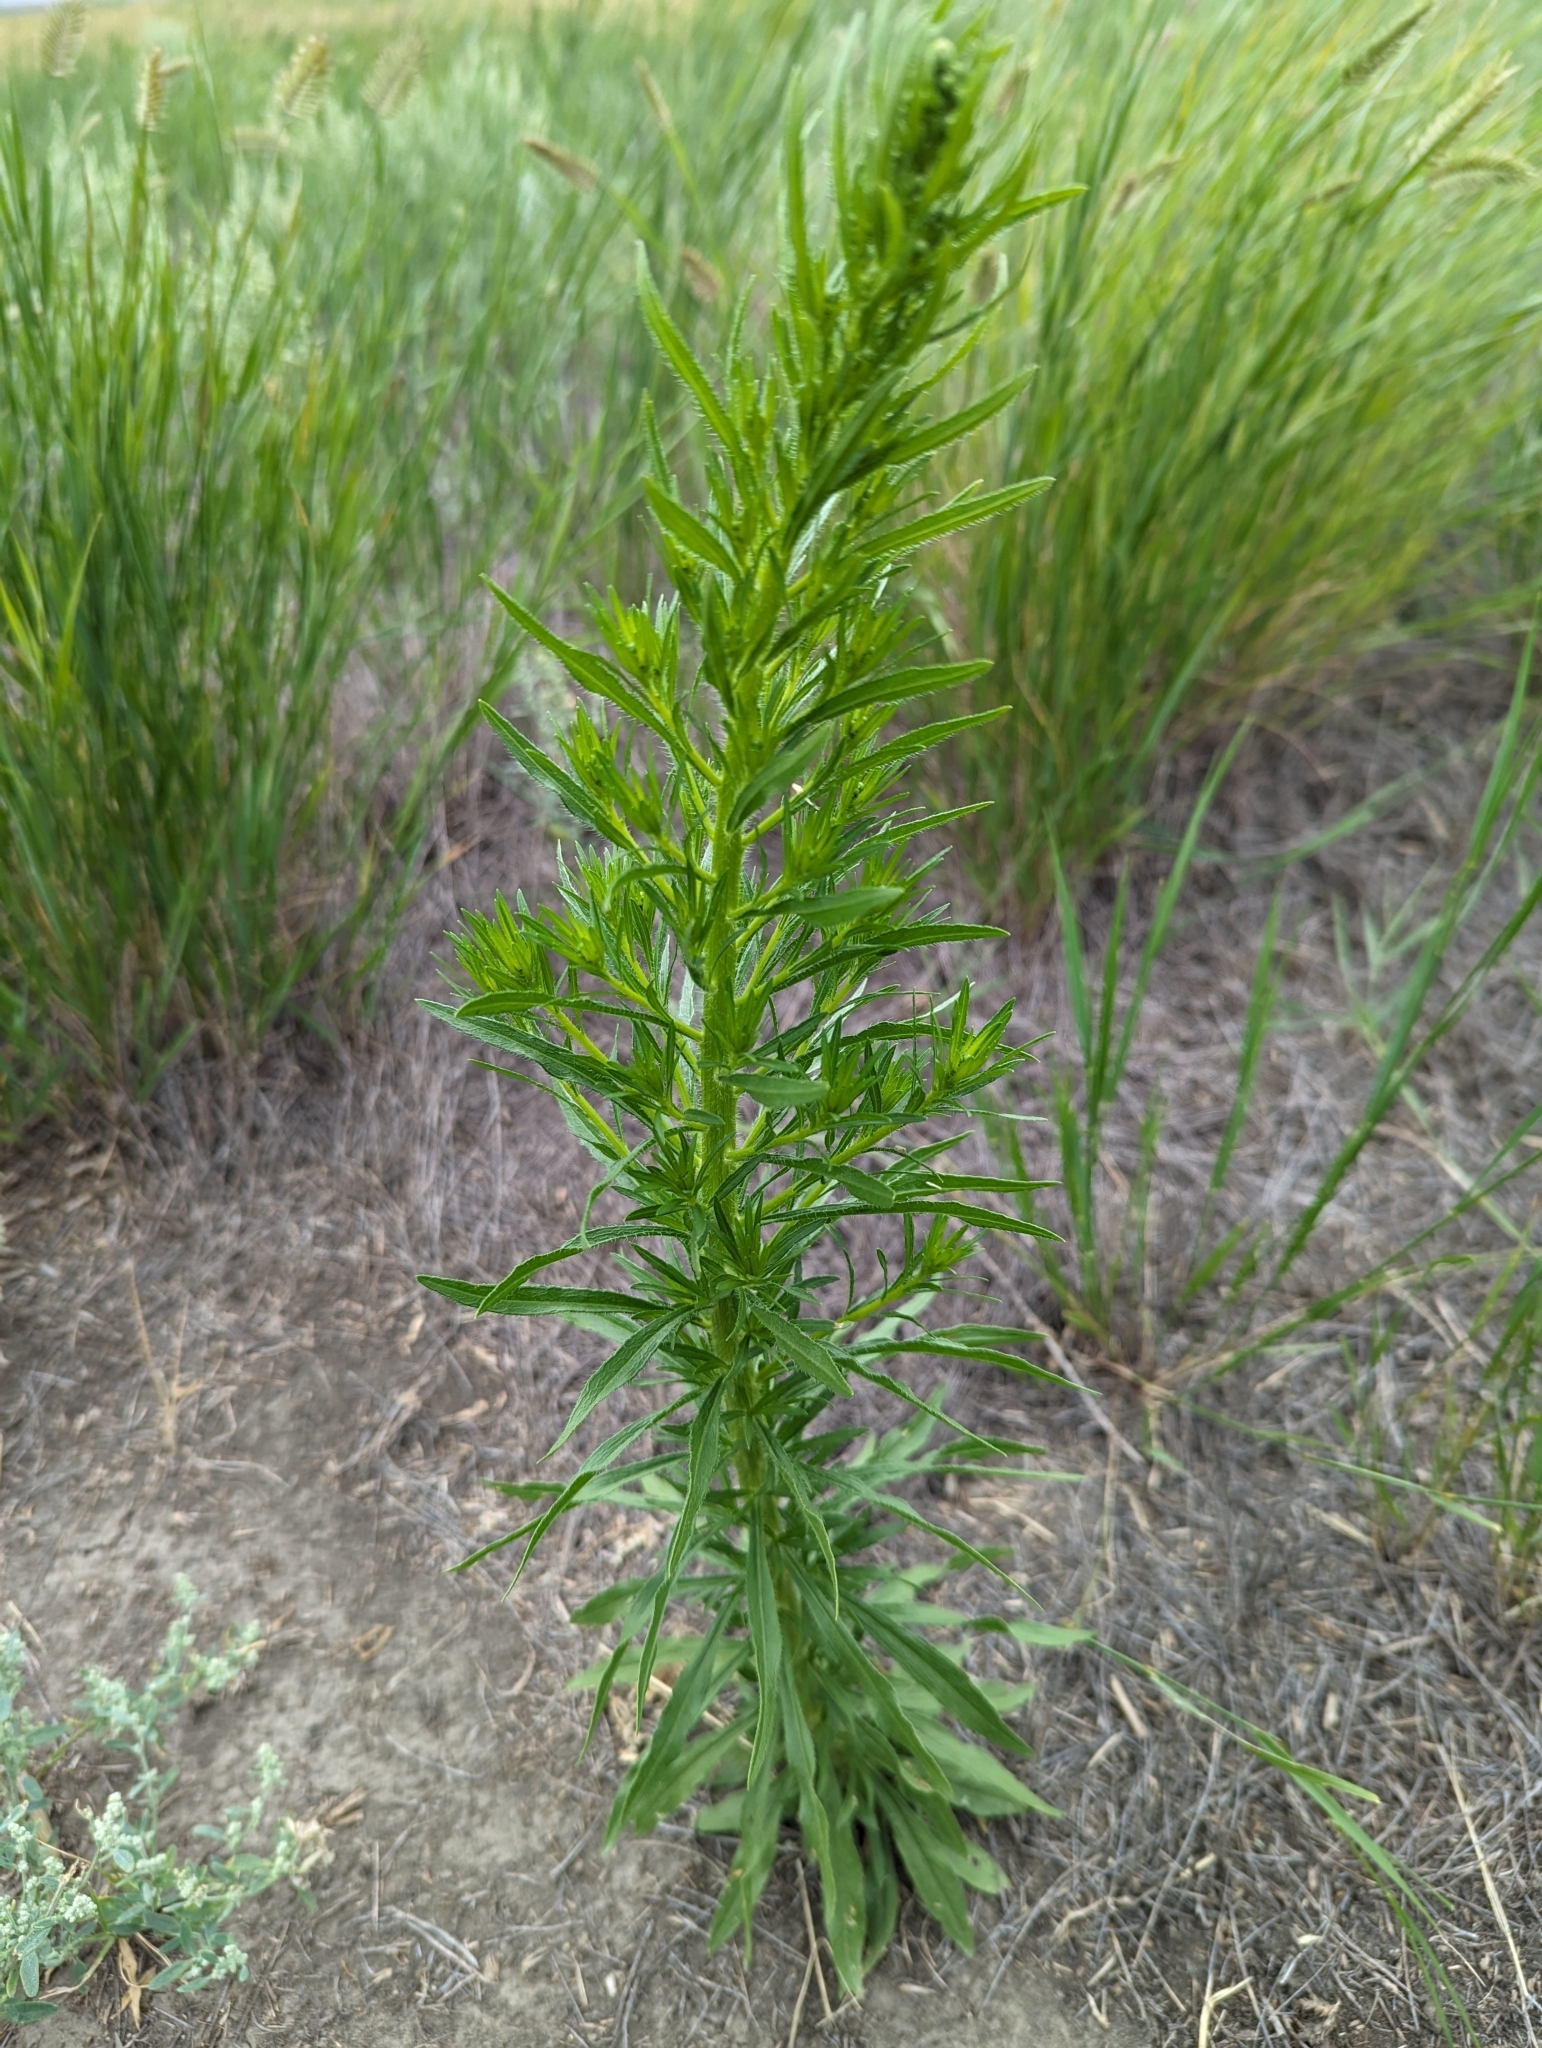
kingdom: Plantae
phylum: Tracheophyta
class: Magnoliopsida
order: Asterales
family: Asteraceae
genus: Erigeron
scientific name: Erigeron canadensis
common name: Canadian fleabane
